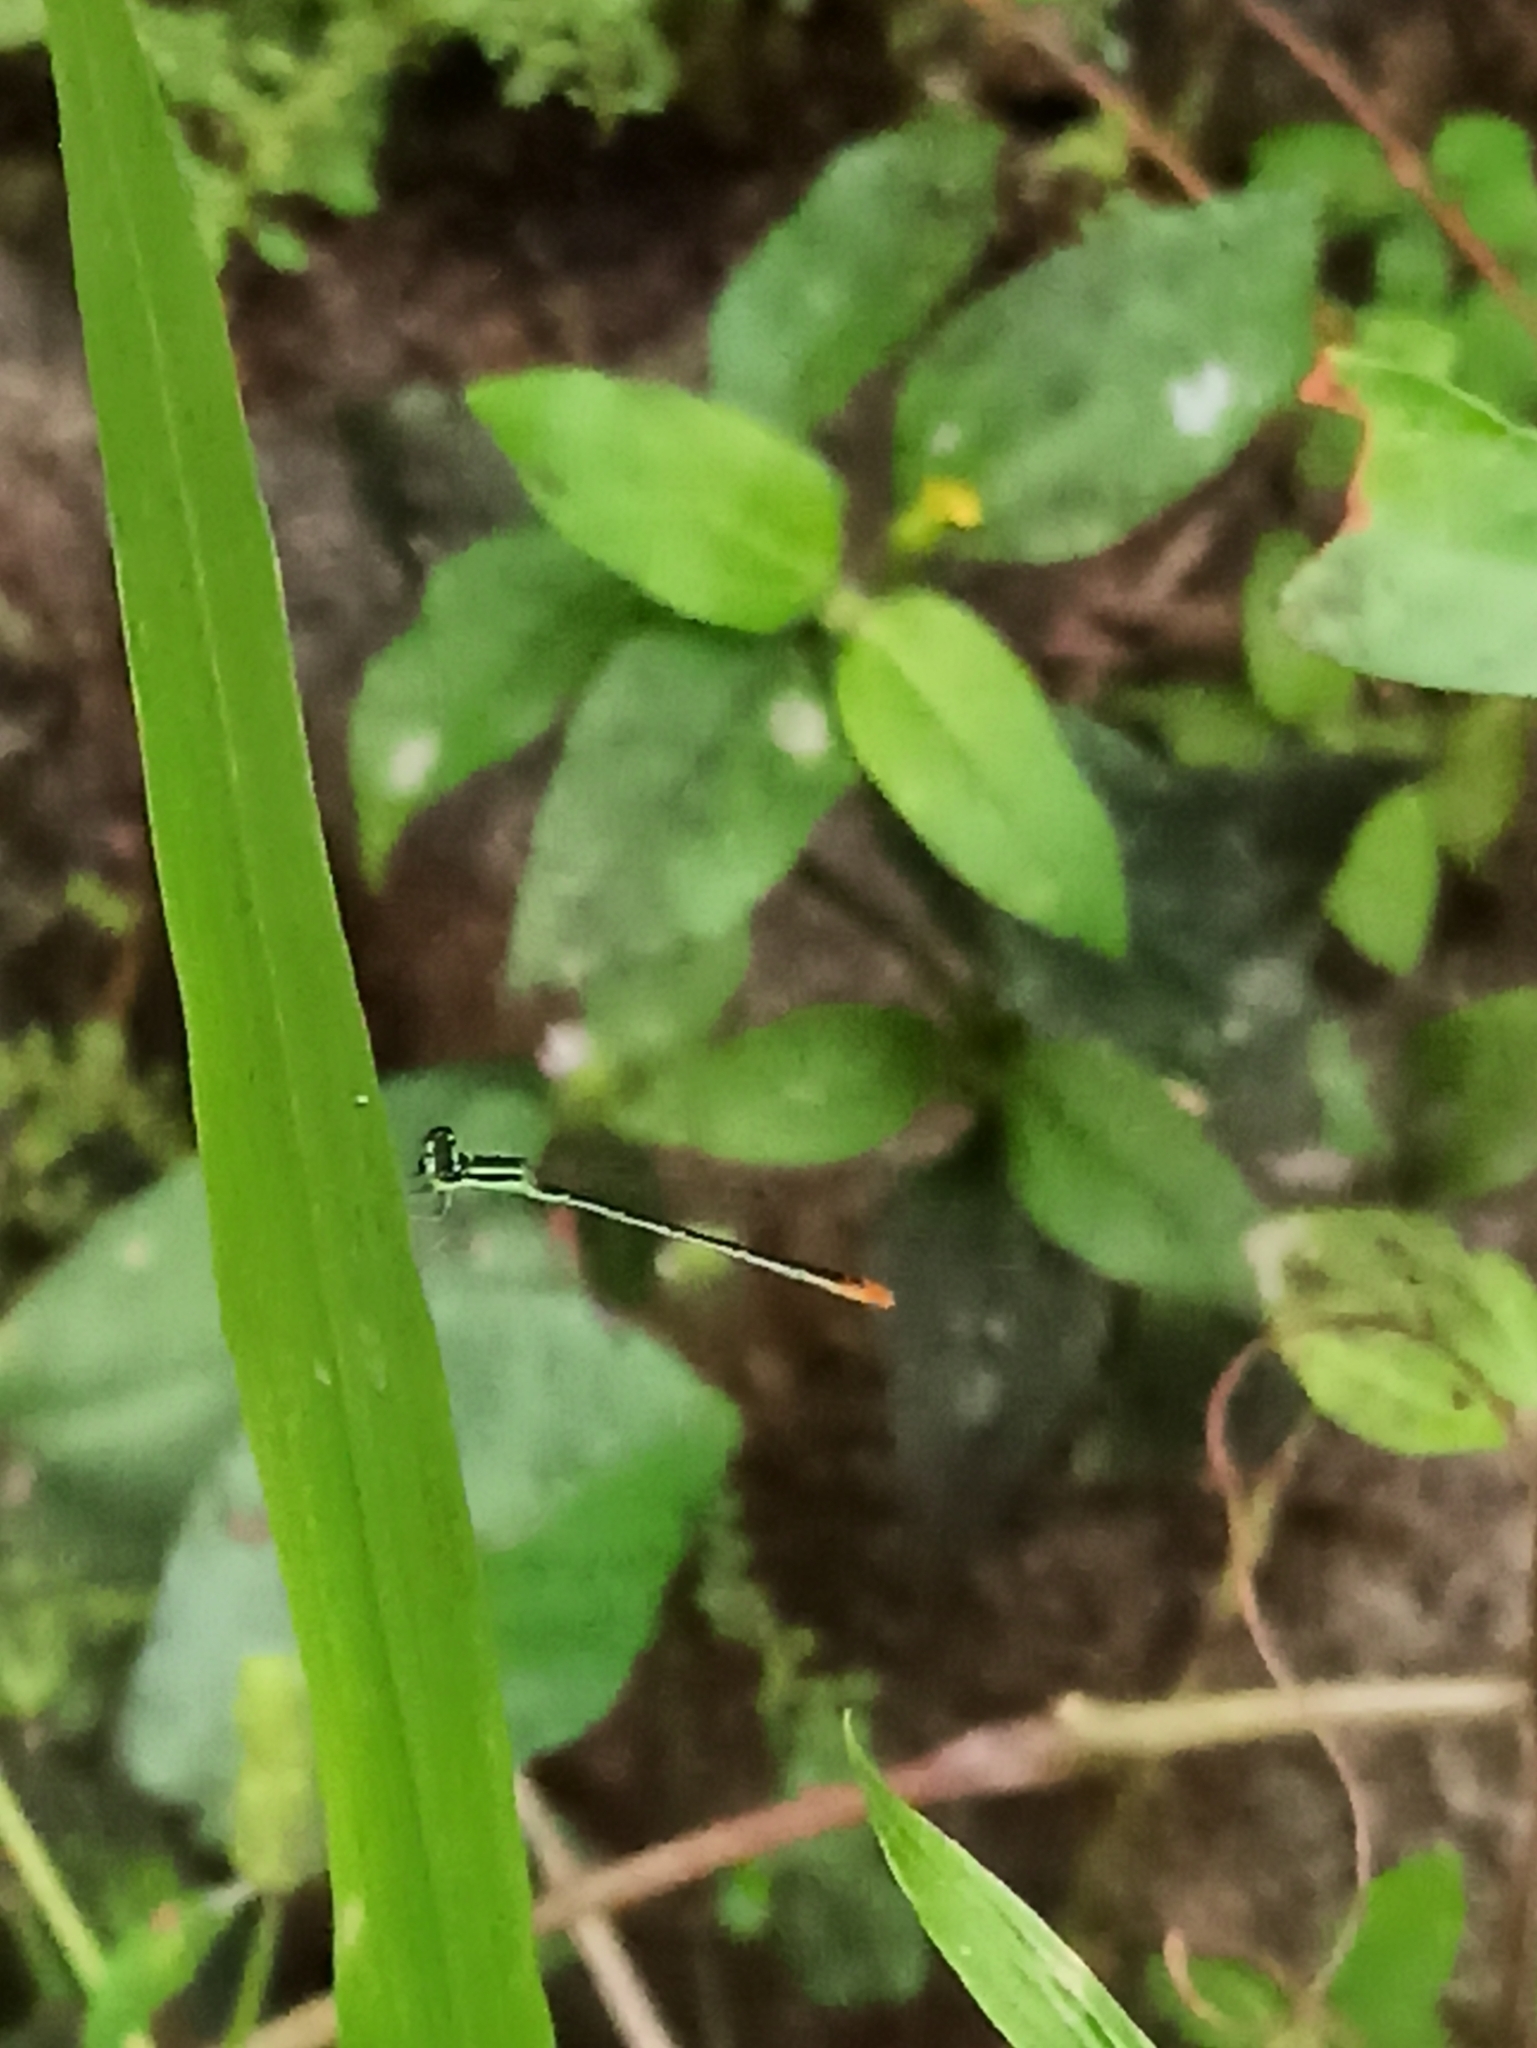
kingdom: Animalia
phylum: Arthropoda
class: Insecta
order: Odonata
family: Coenagrionidae
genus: Agriocnemis
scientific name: Agriocnemis pygmaea
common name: Pygmy wisp
